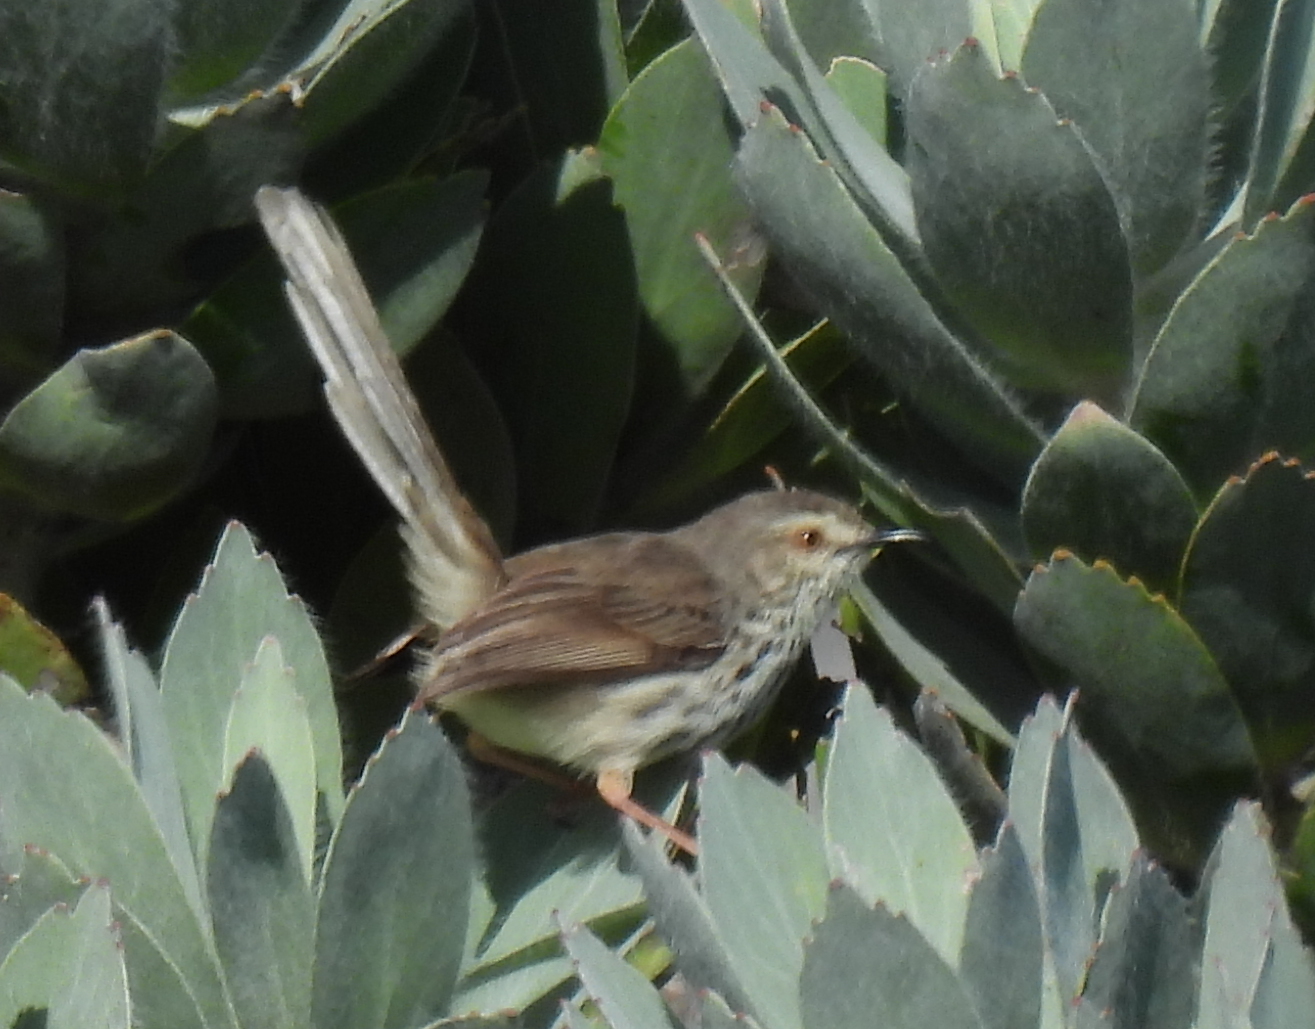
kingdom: Animalia
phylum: Chordata
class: Aves
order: Passeriformes
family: Cisticolidae
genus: Prinia
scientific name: Prinia maculosa
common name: Karoo prinia
